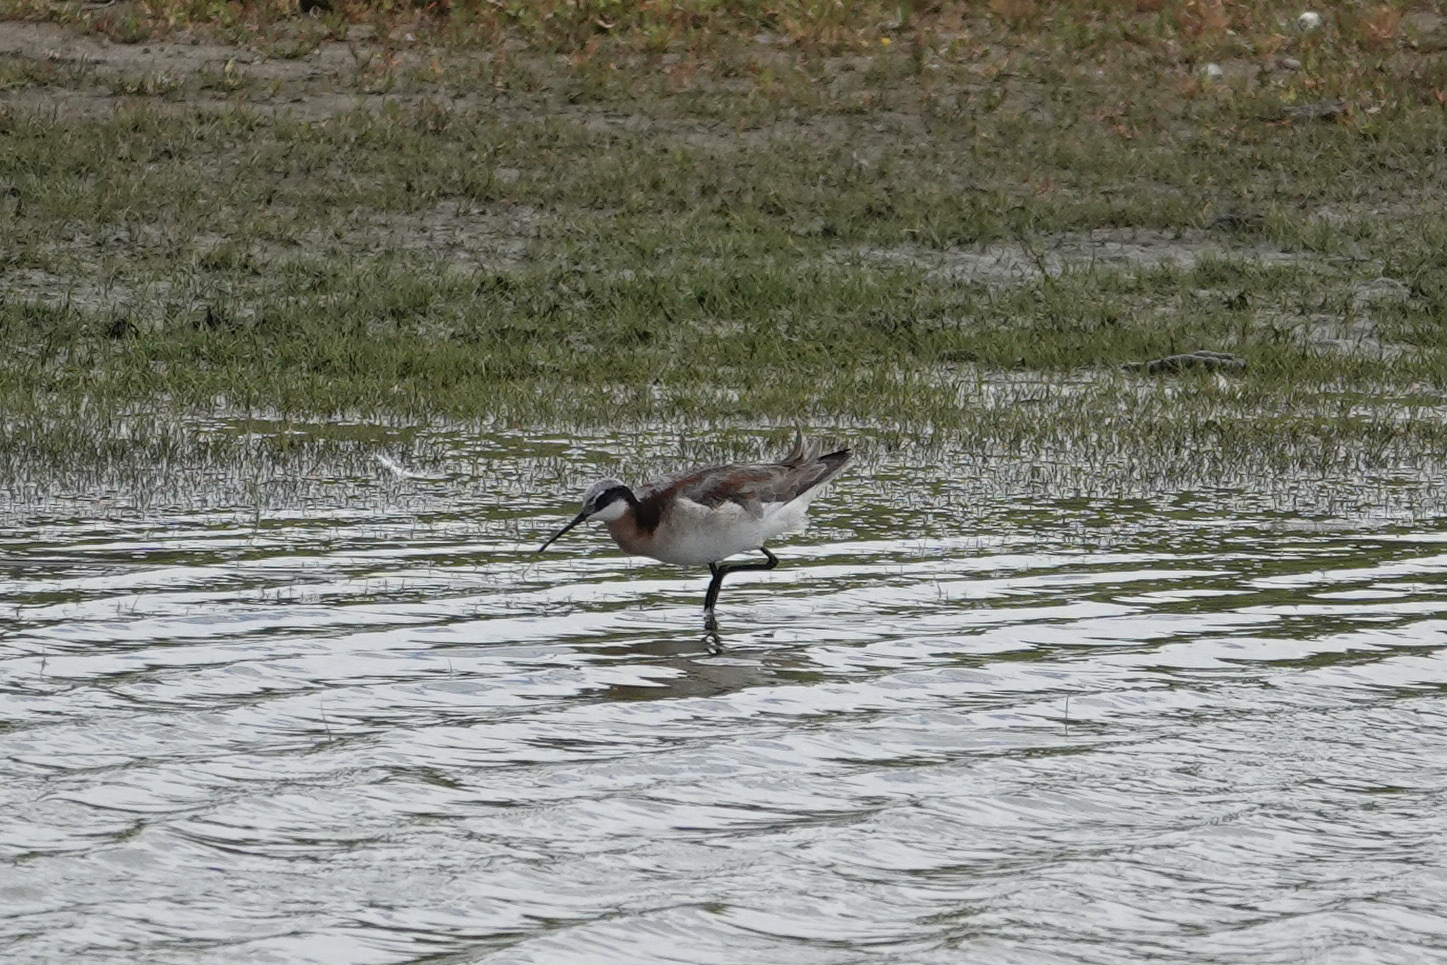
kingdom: Animalia
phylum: Chordata
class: Aves
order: Charadriiformes
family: Scolopacidae
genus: Phalaropus
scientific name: Phalaropus tricolor
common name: Wilson's phalarope
